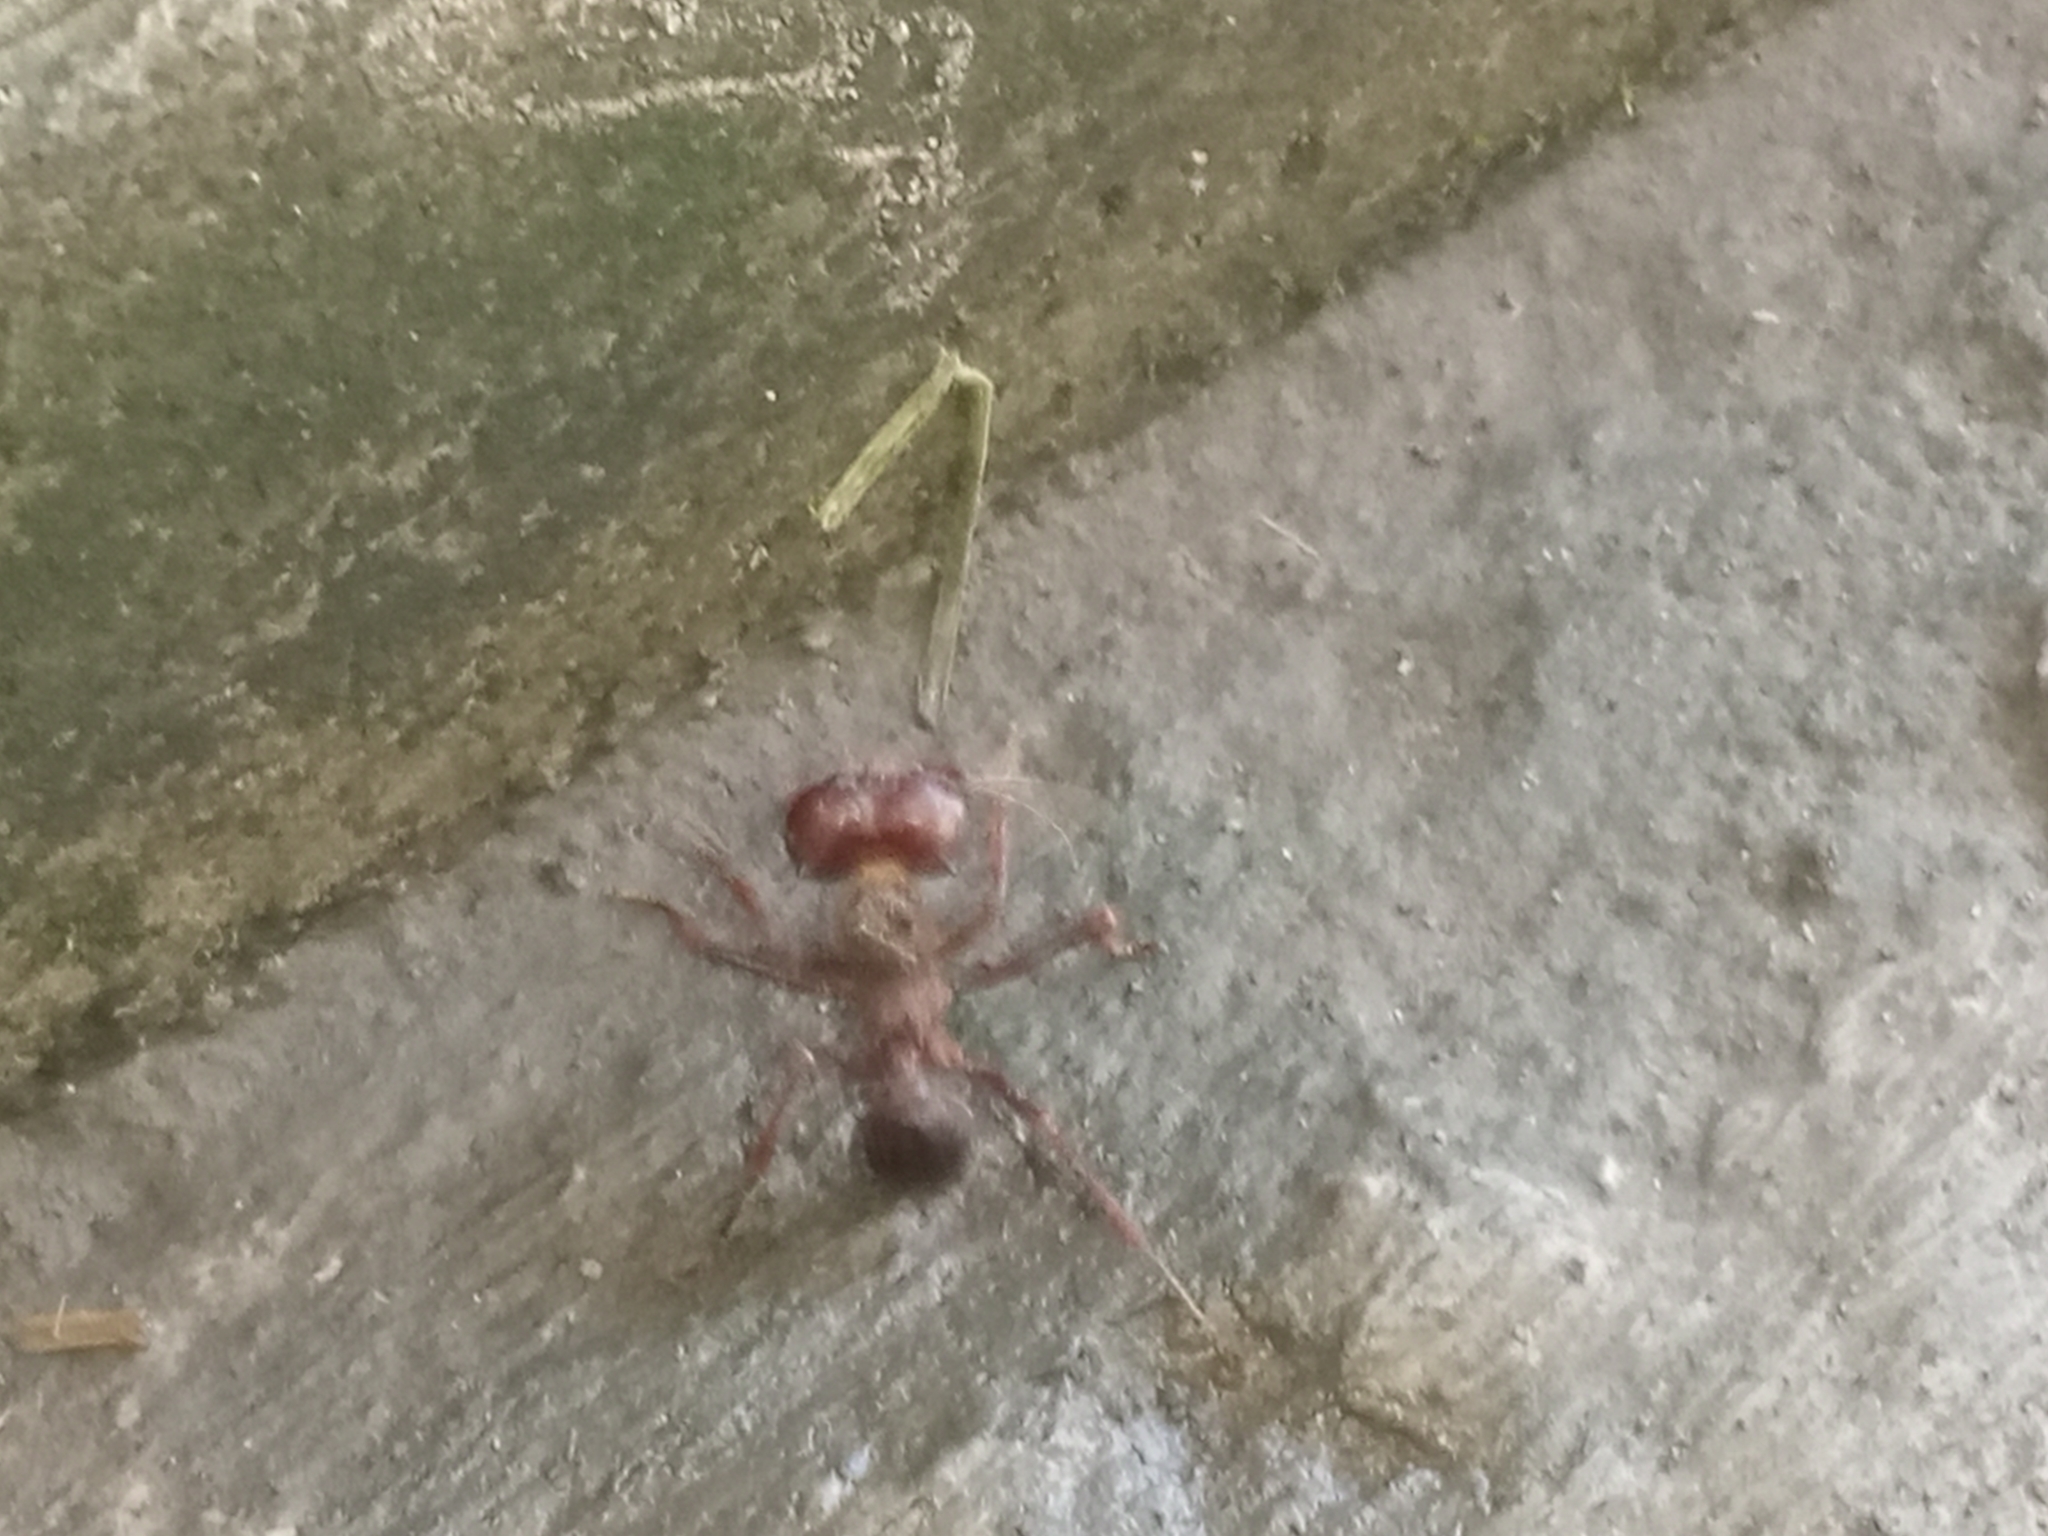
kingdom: Animalia
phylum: Arthropoda
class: Insecta
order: Hymenoptera
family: Formicidae
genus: Atta
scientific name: Atta mexicana
